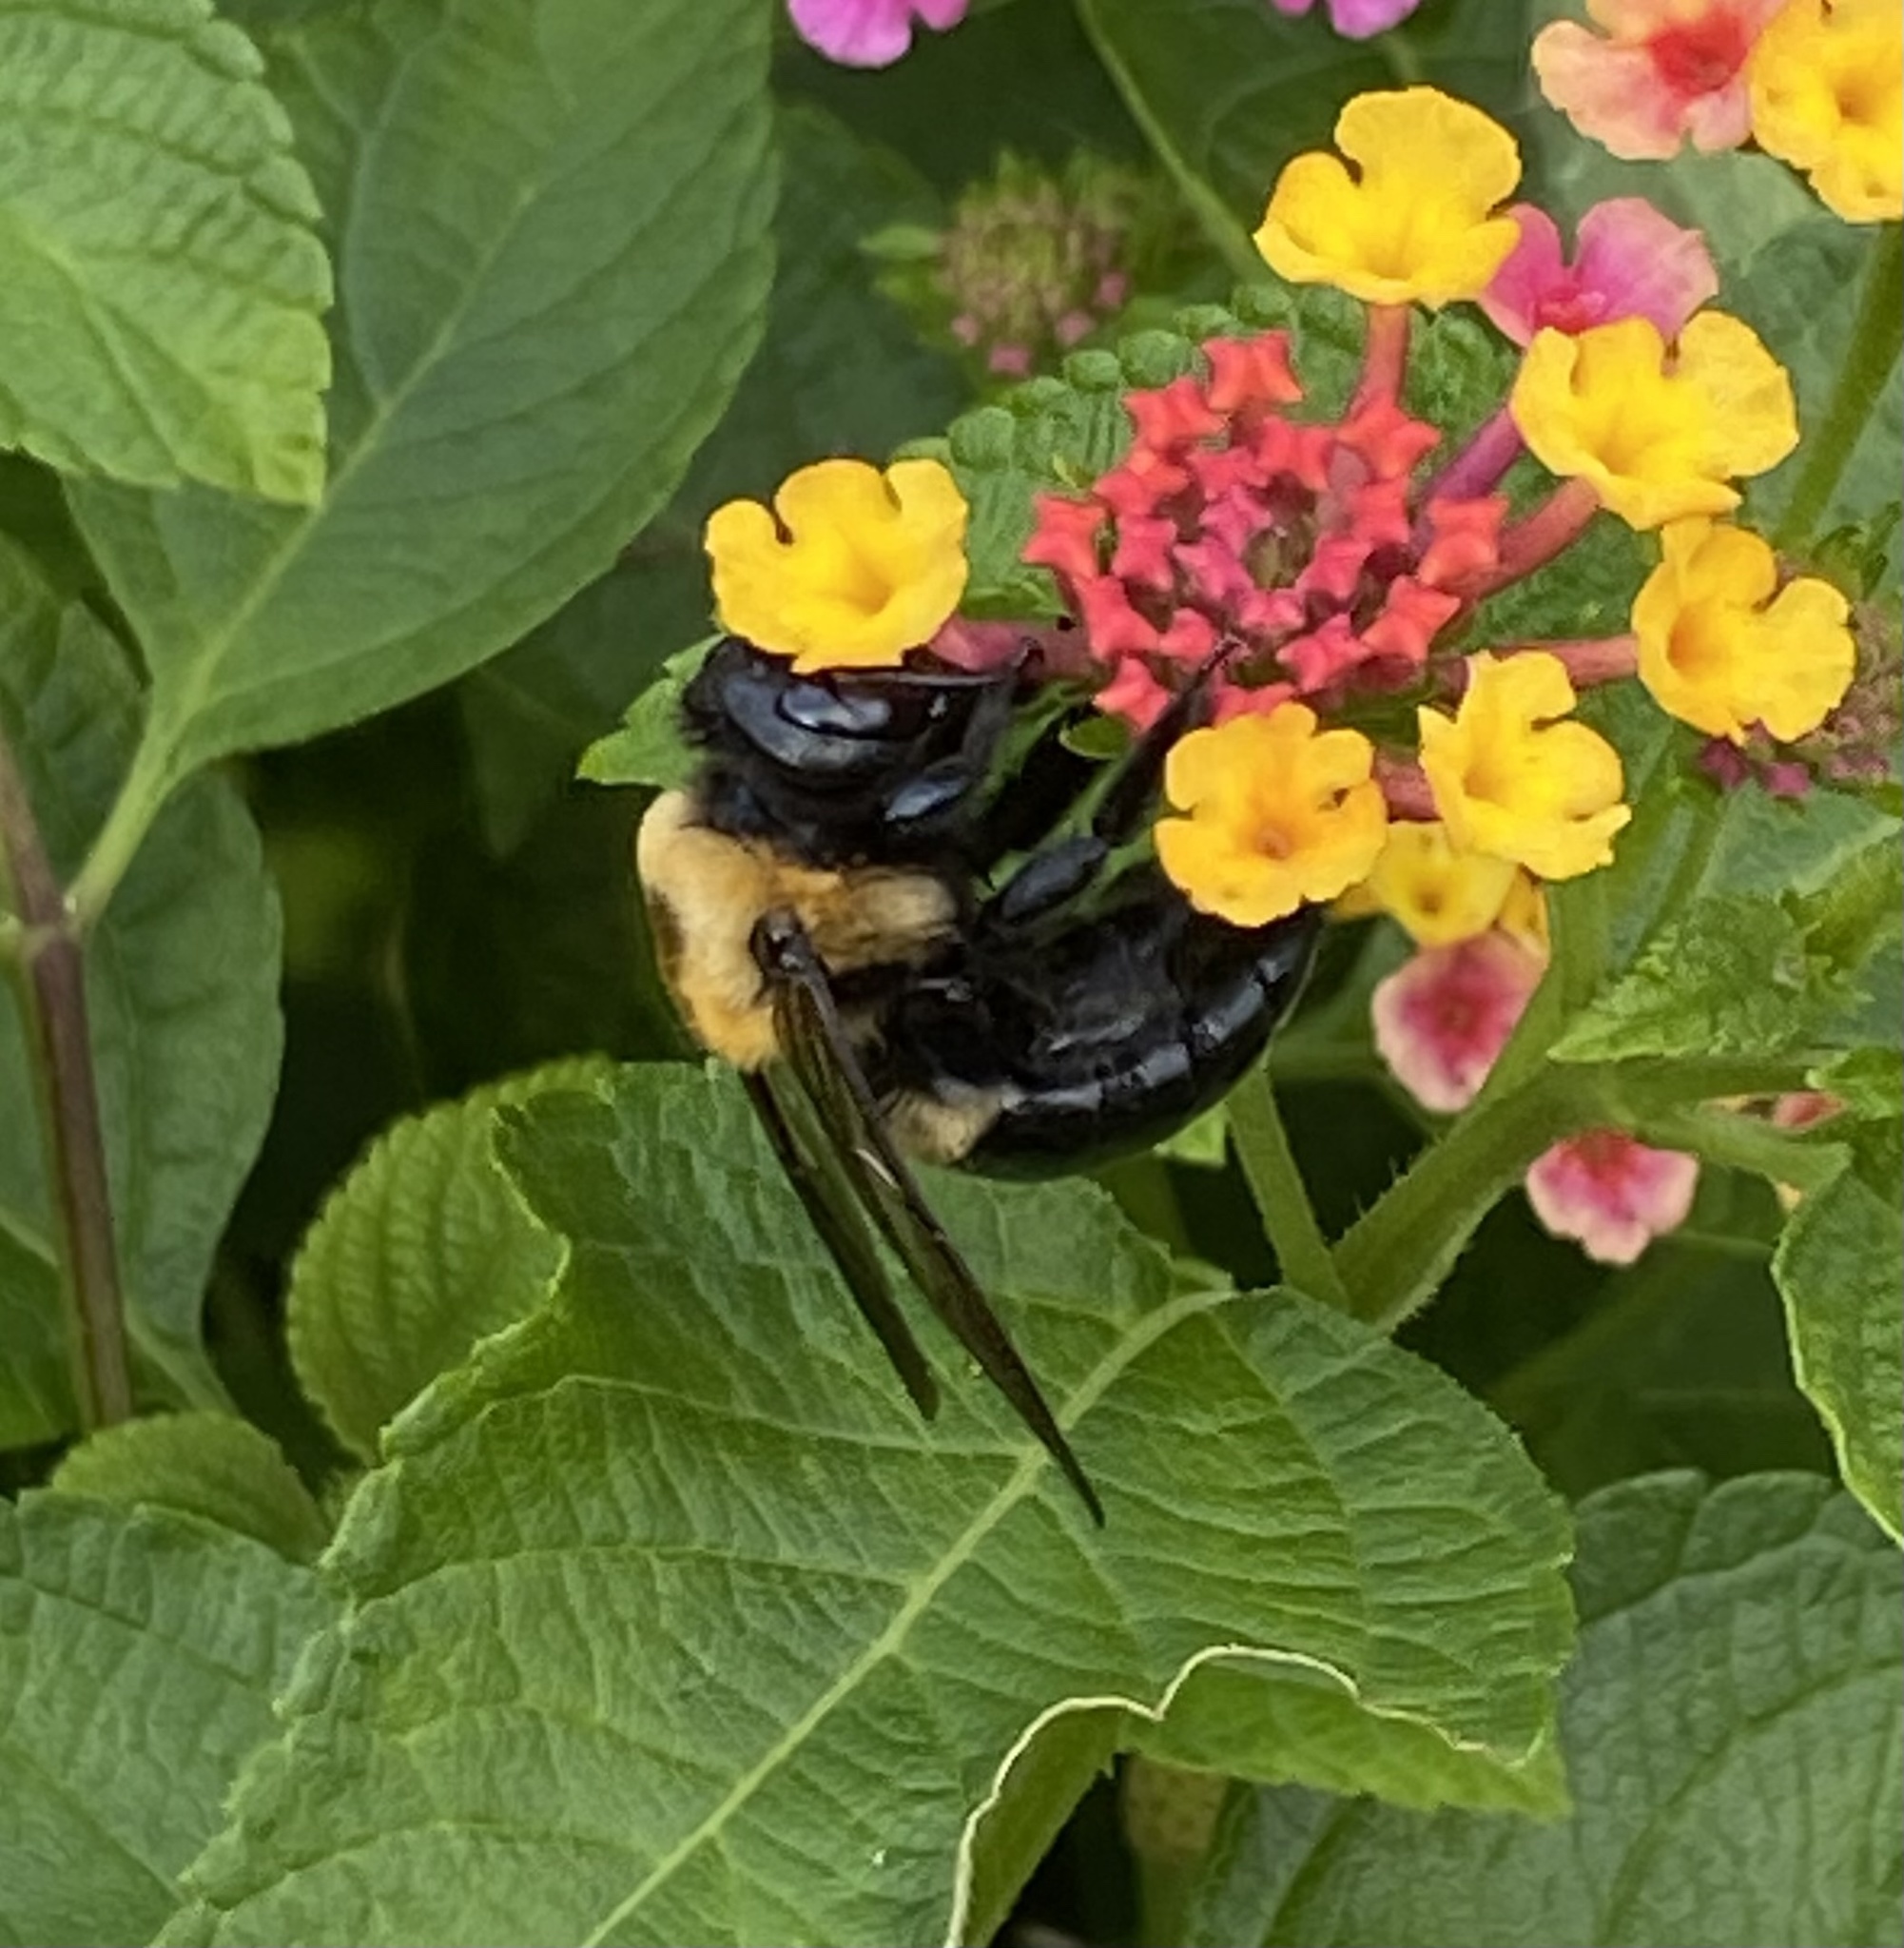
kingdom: Animalia
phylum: Arthropoda
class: Insecta
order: Hymenoptera
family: Apidae
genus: Xylocopa
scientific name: Xylocopa virginica
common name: Carpenter bee
